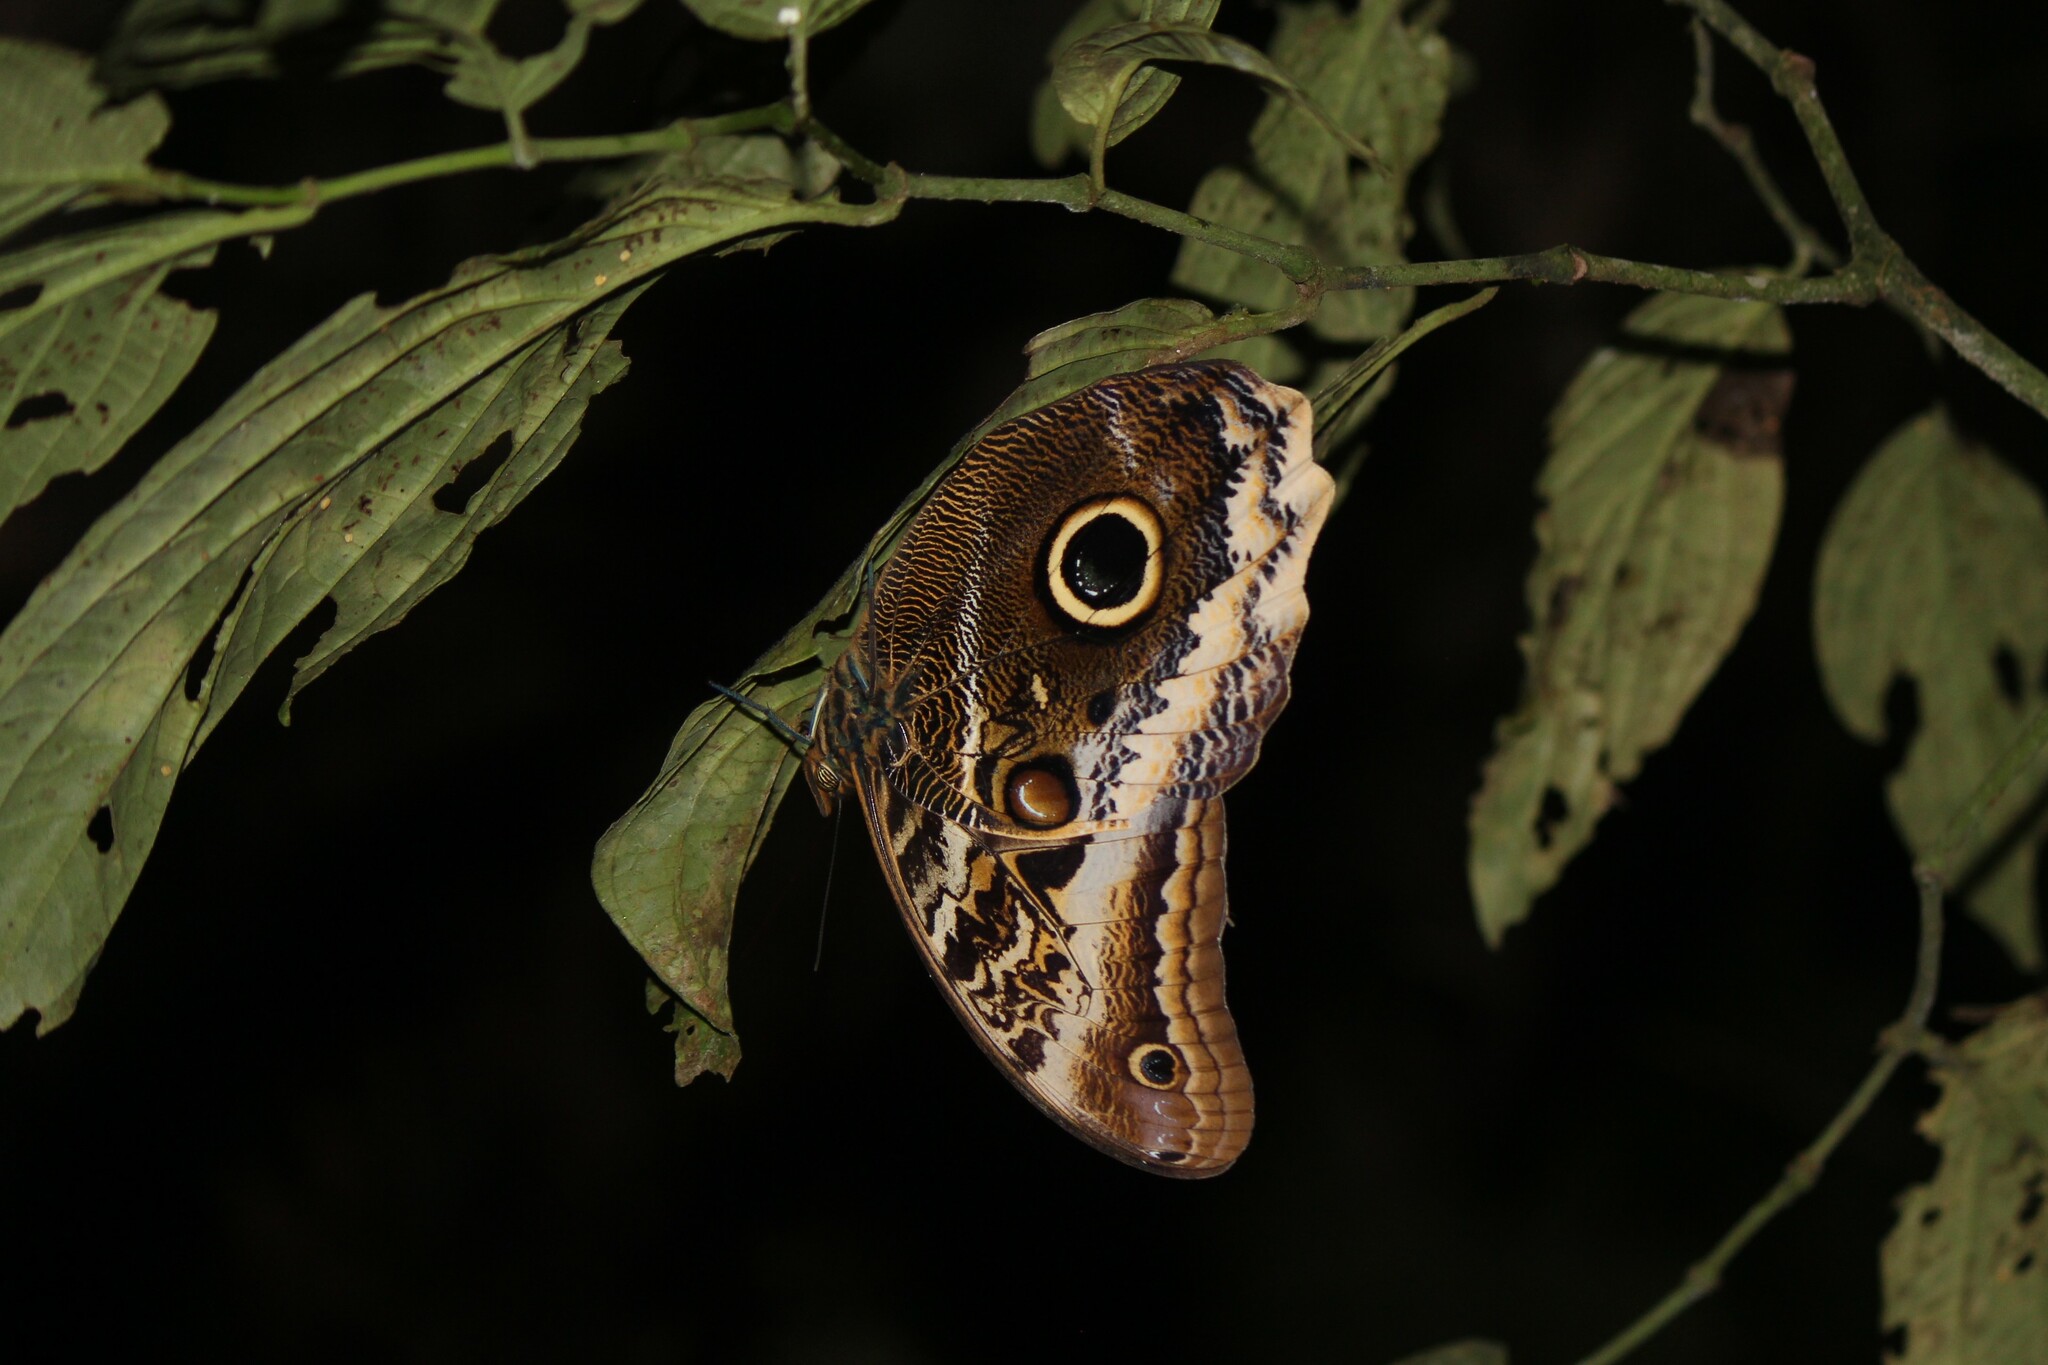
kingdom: Animalia
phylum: Arthropoda
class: Insecta
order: Lepidoptera
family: Nymphalidae
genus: Caligo
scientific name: Caligo atreus
